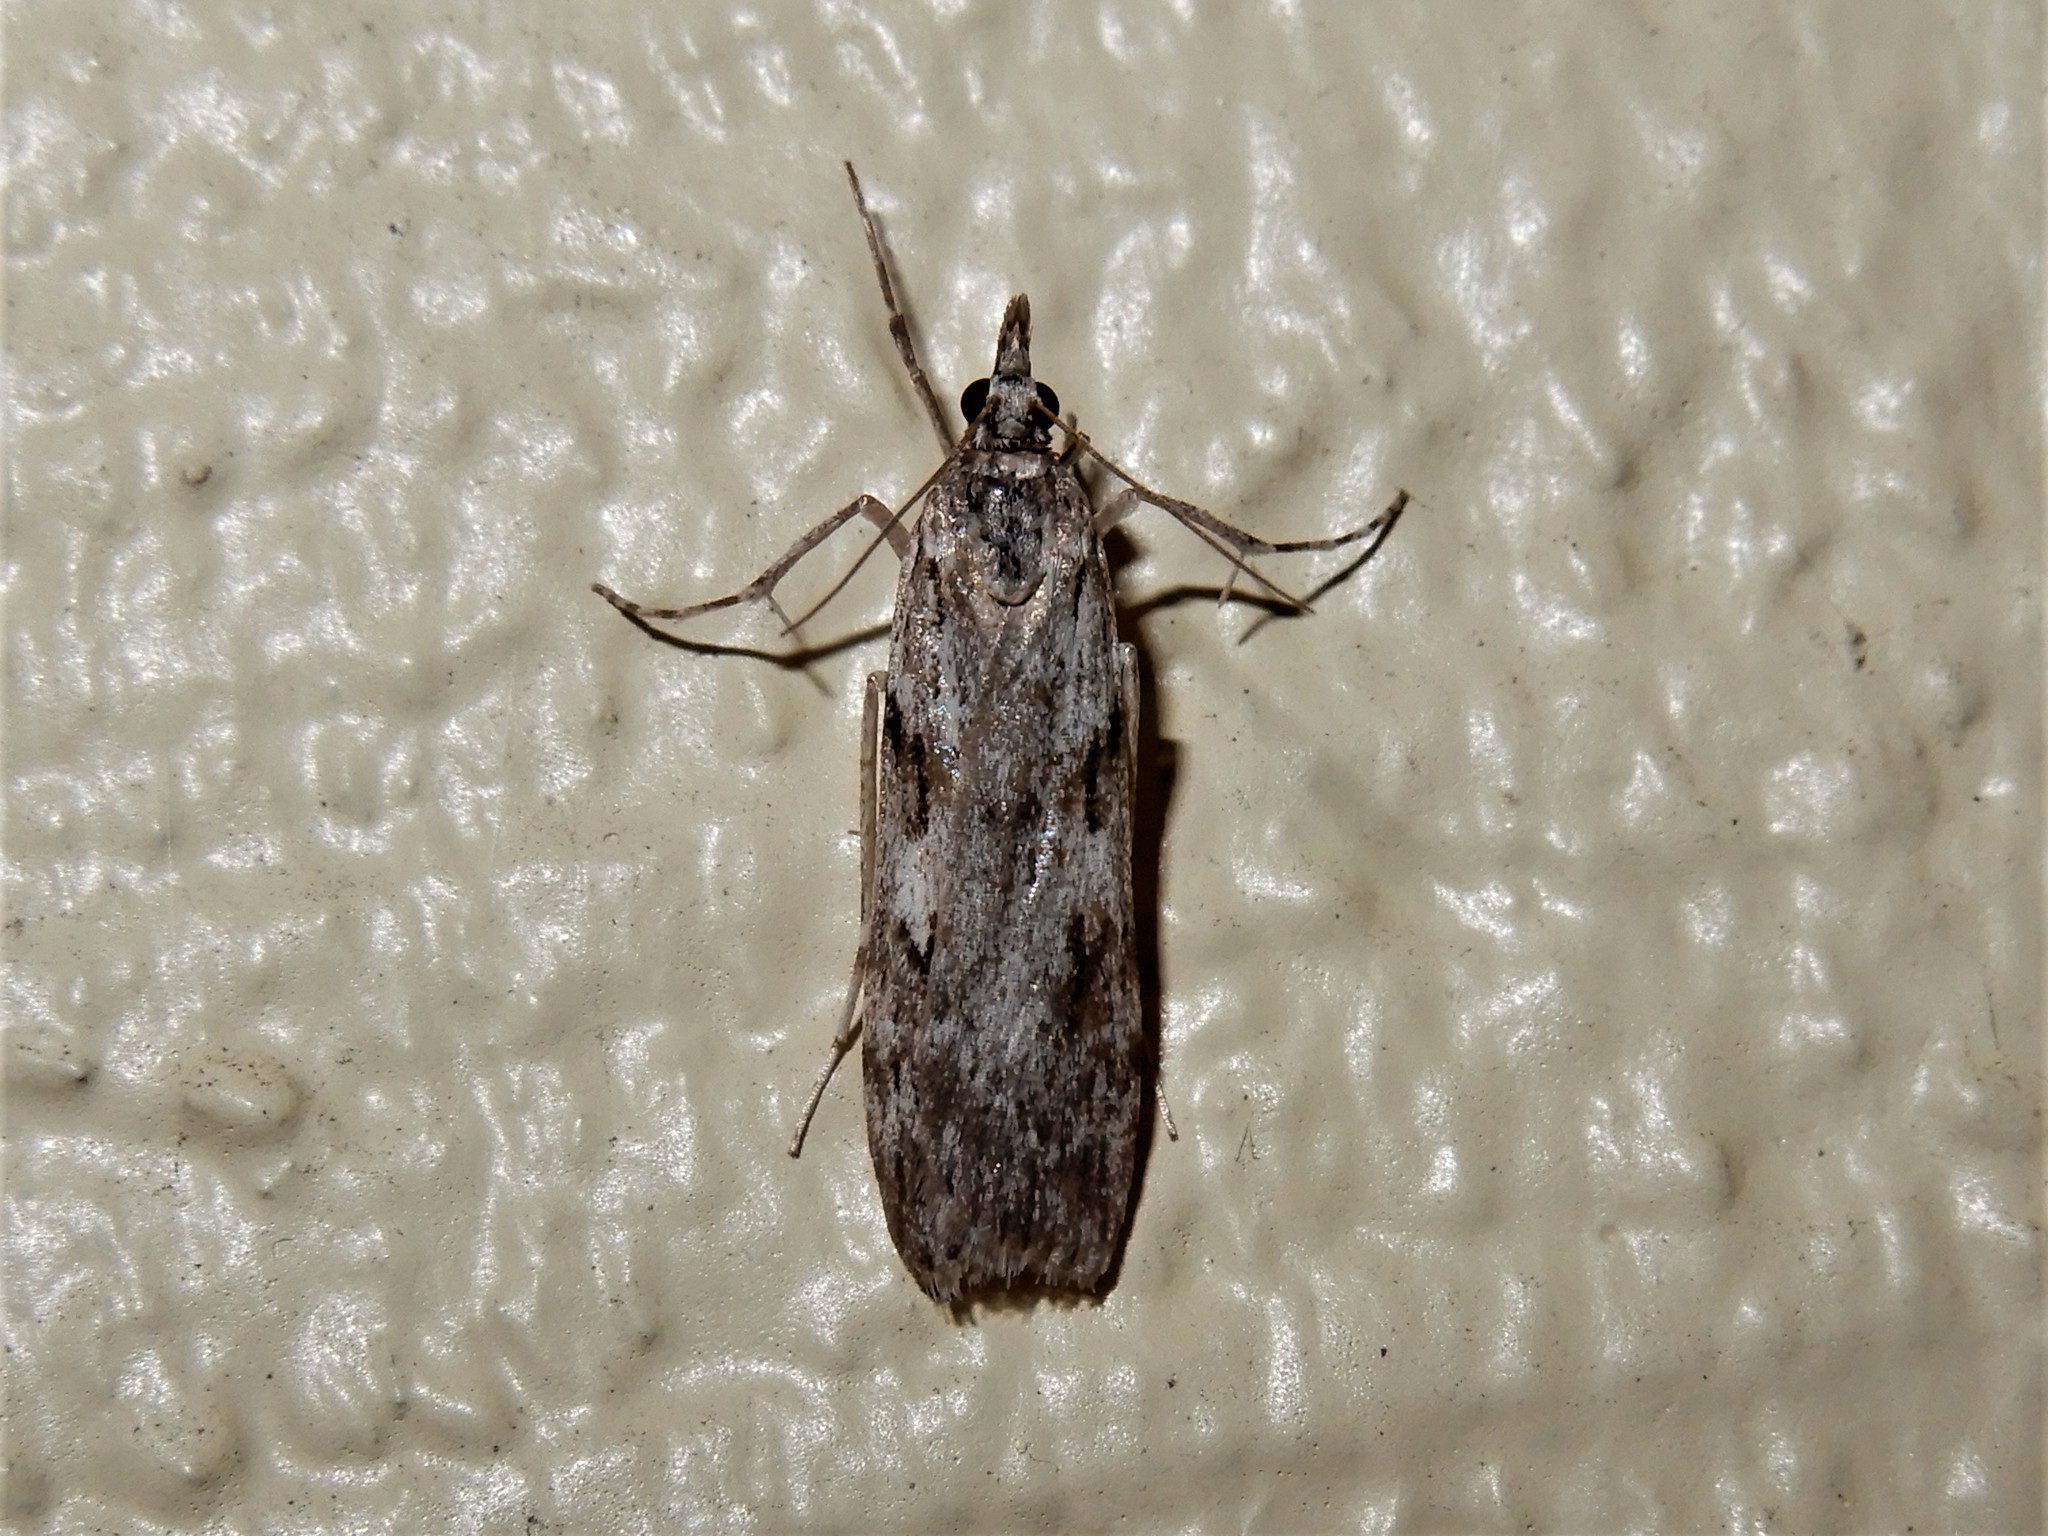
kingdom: Animalia
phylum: Arthropoda
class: Insecta
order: Lepidoptera
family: Crambidae
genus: Scoparia
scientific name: Scoparia halopis
